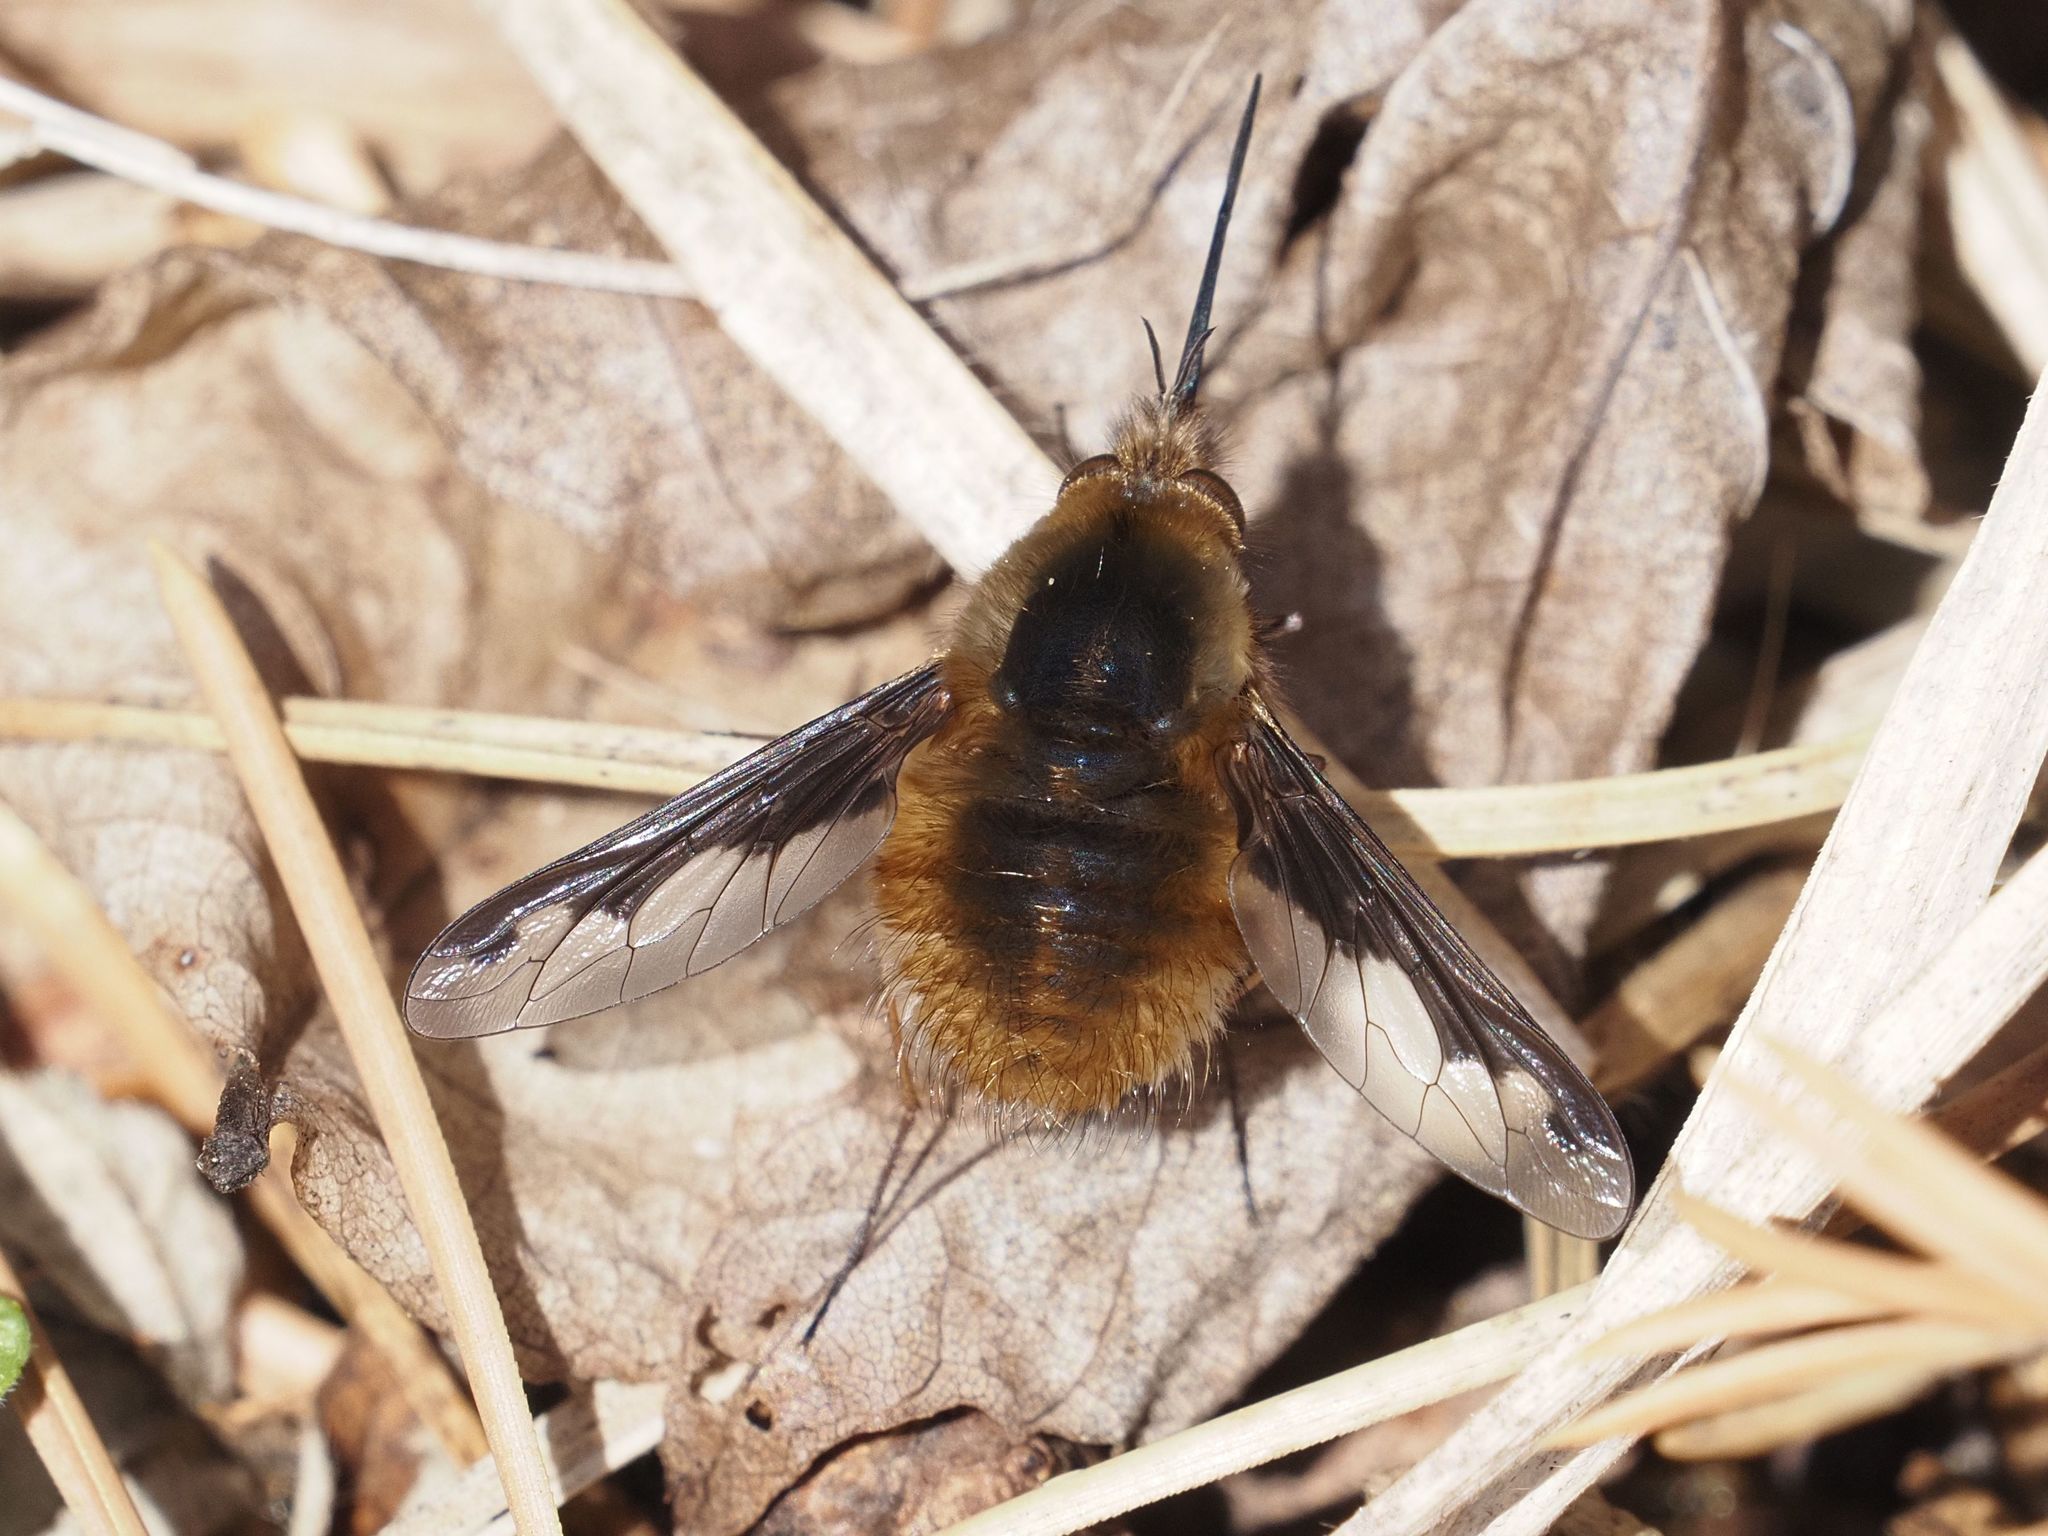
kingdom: Animalia
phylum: Arthropoda
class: Insecta
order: Diptera
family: Bombyliidae
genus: Bombylius
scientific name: Bombylius major
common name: Bee fly
